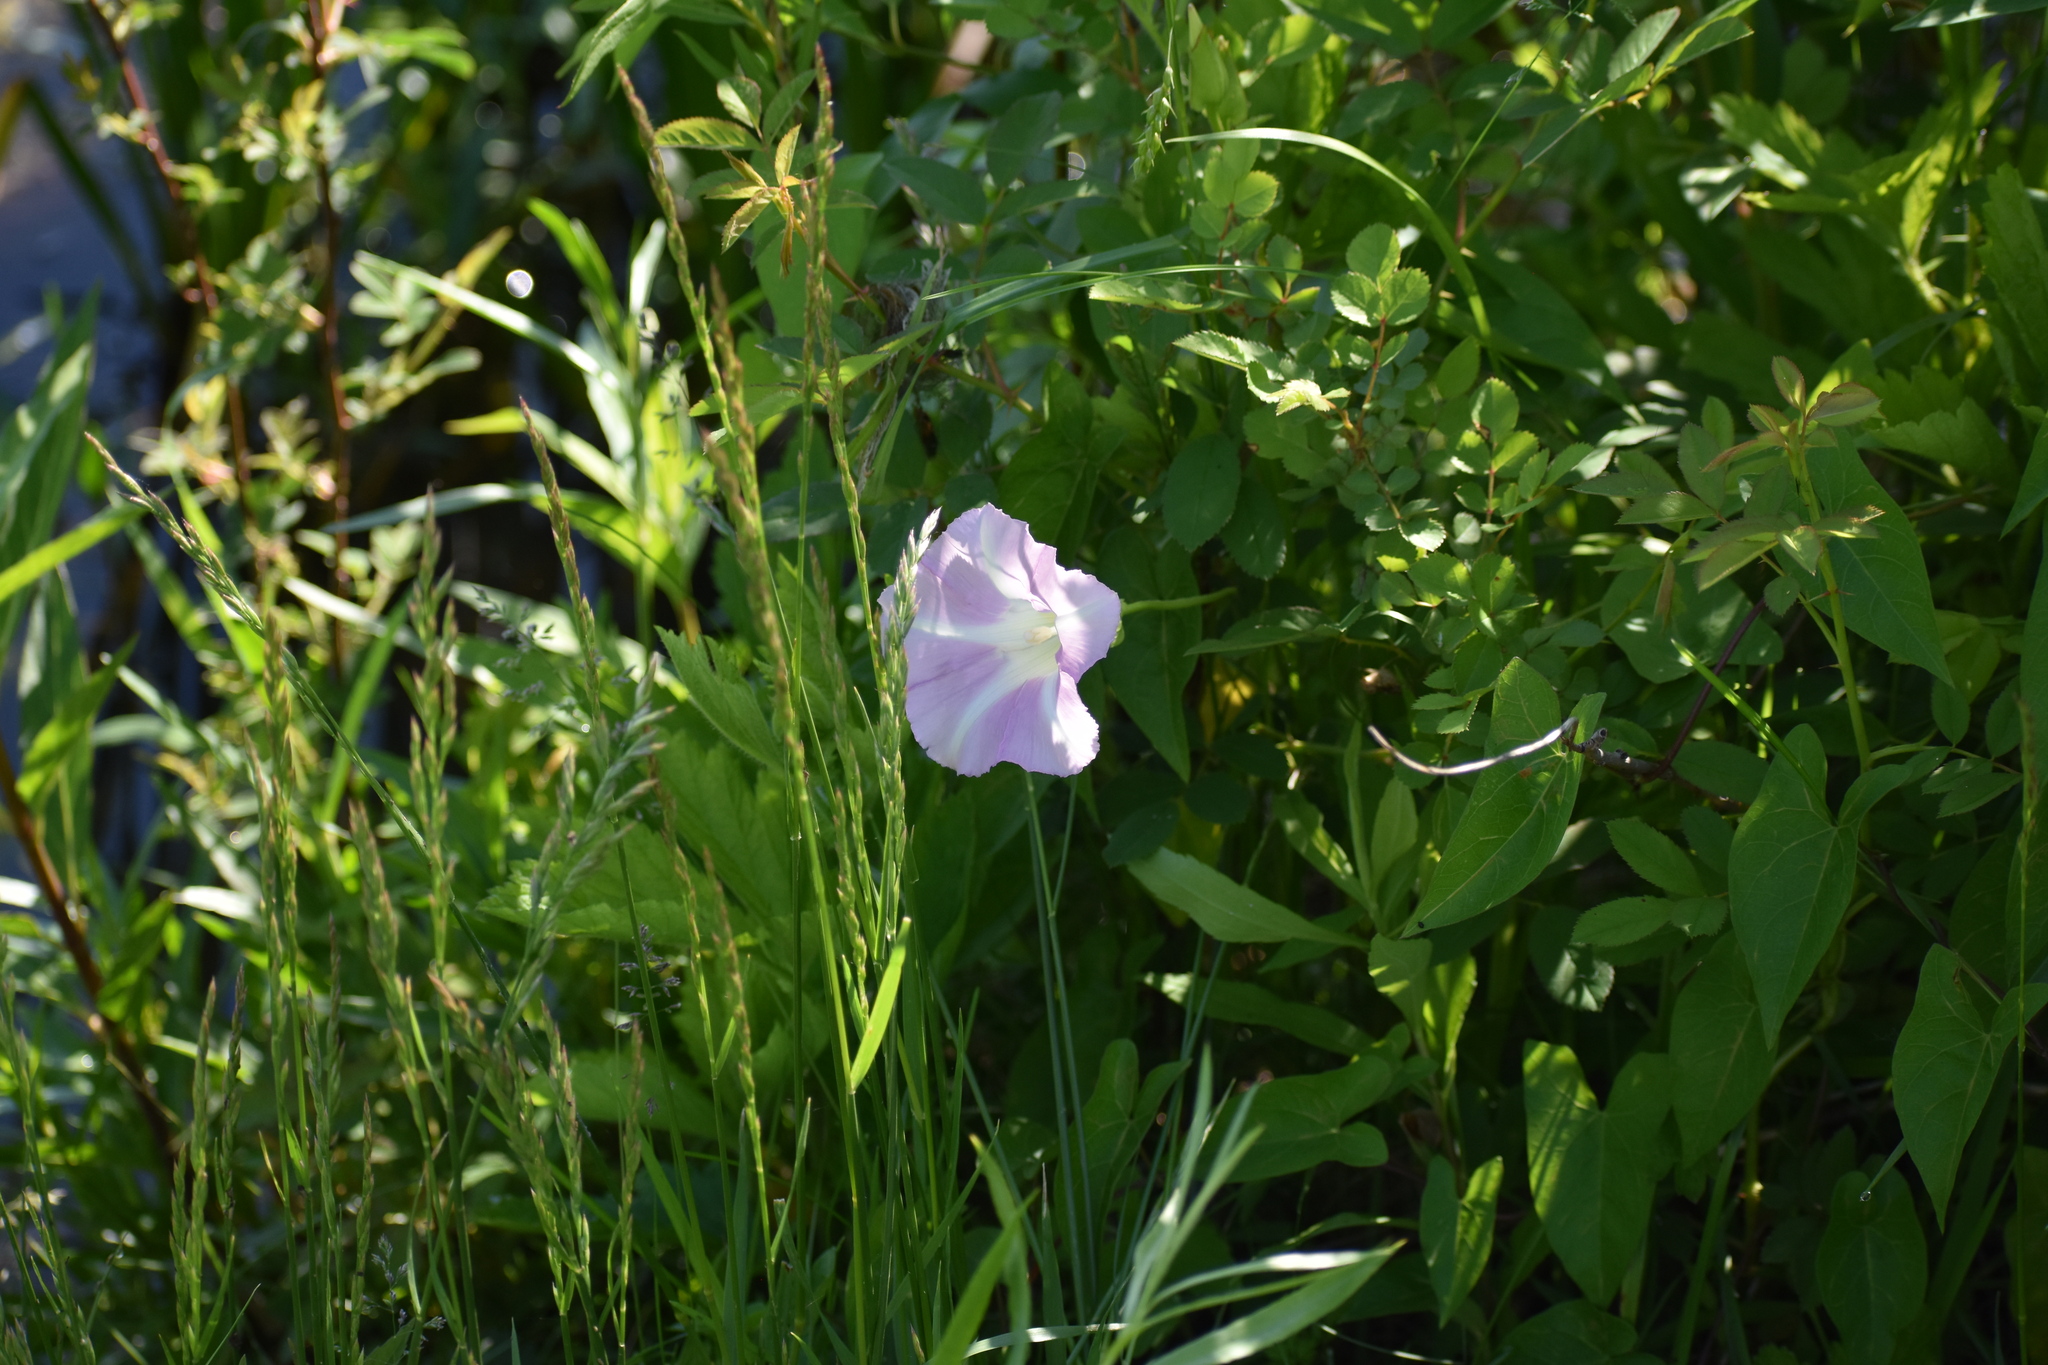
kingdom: Plantae
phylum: Tracheophyta
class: Magnoliopsida
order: Solanales
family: Convolvulaceae
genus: Calystegia
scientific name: Calystegia sepium
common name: Hedge bindweed
